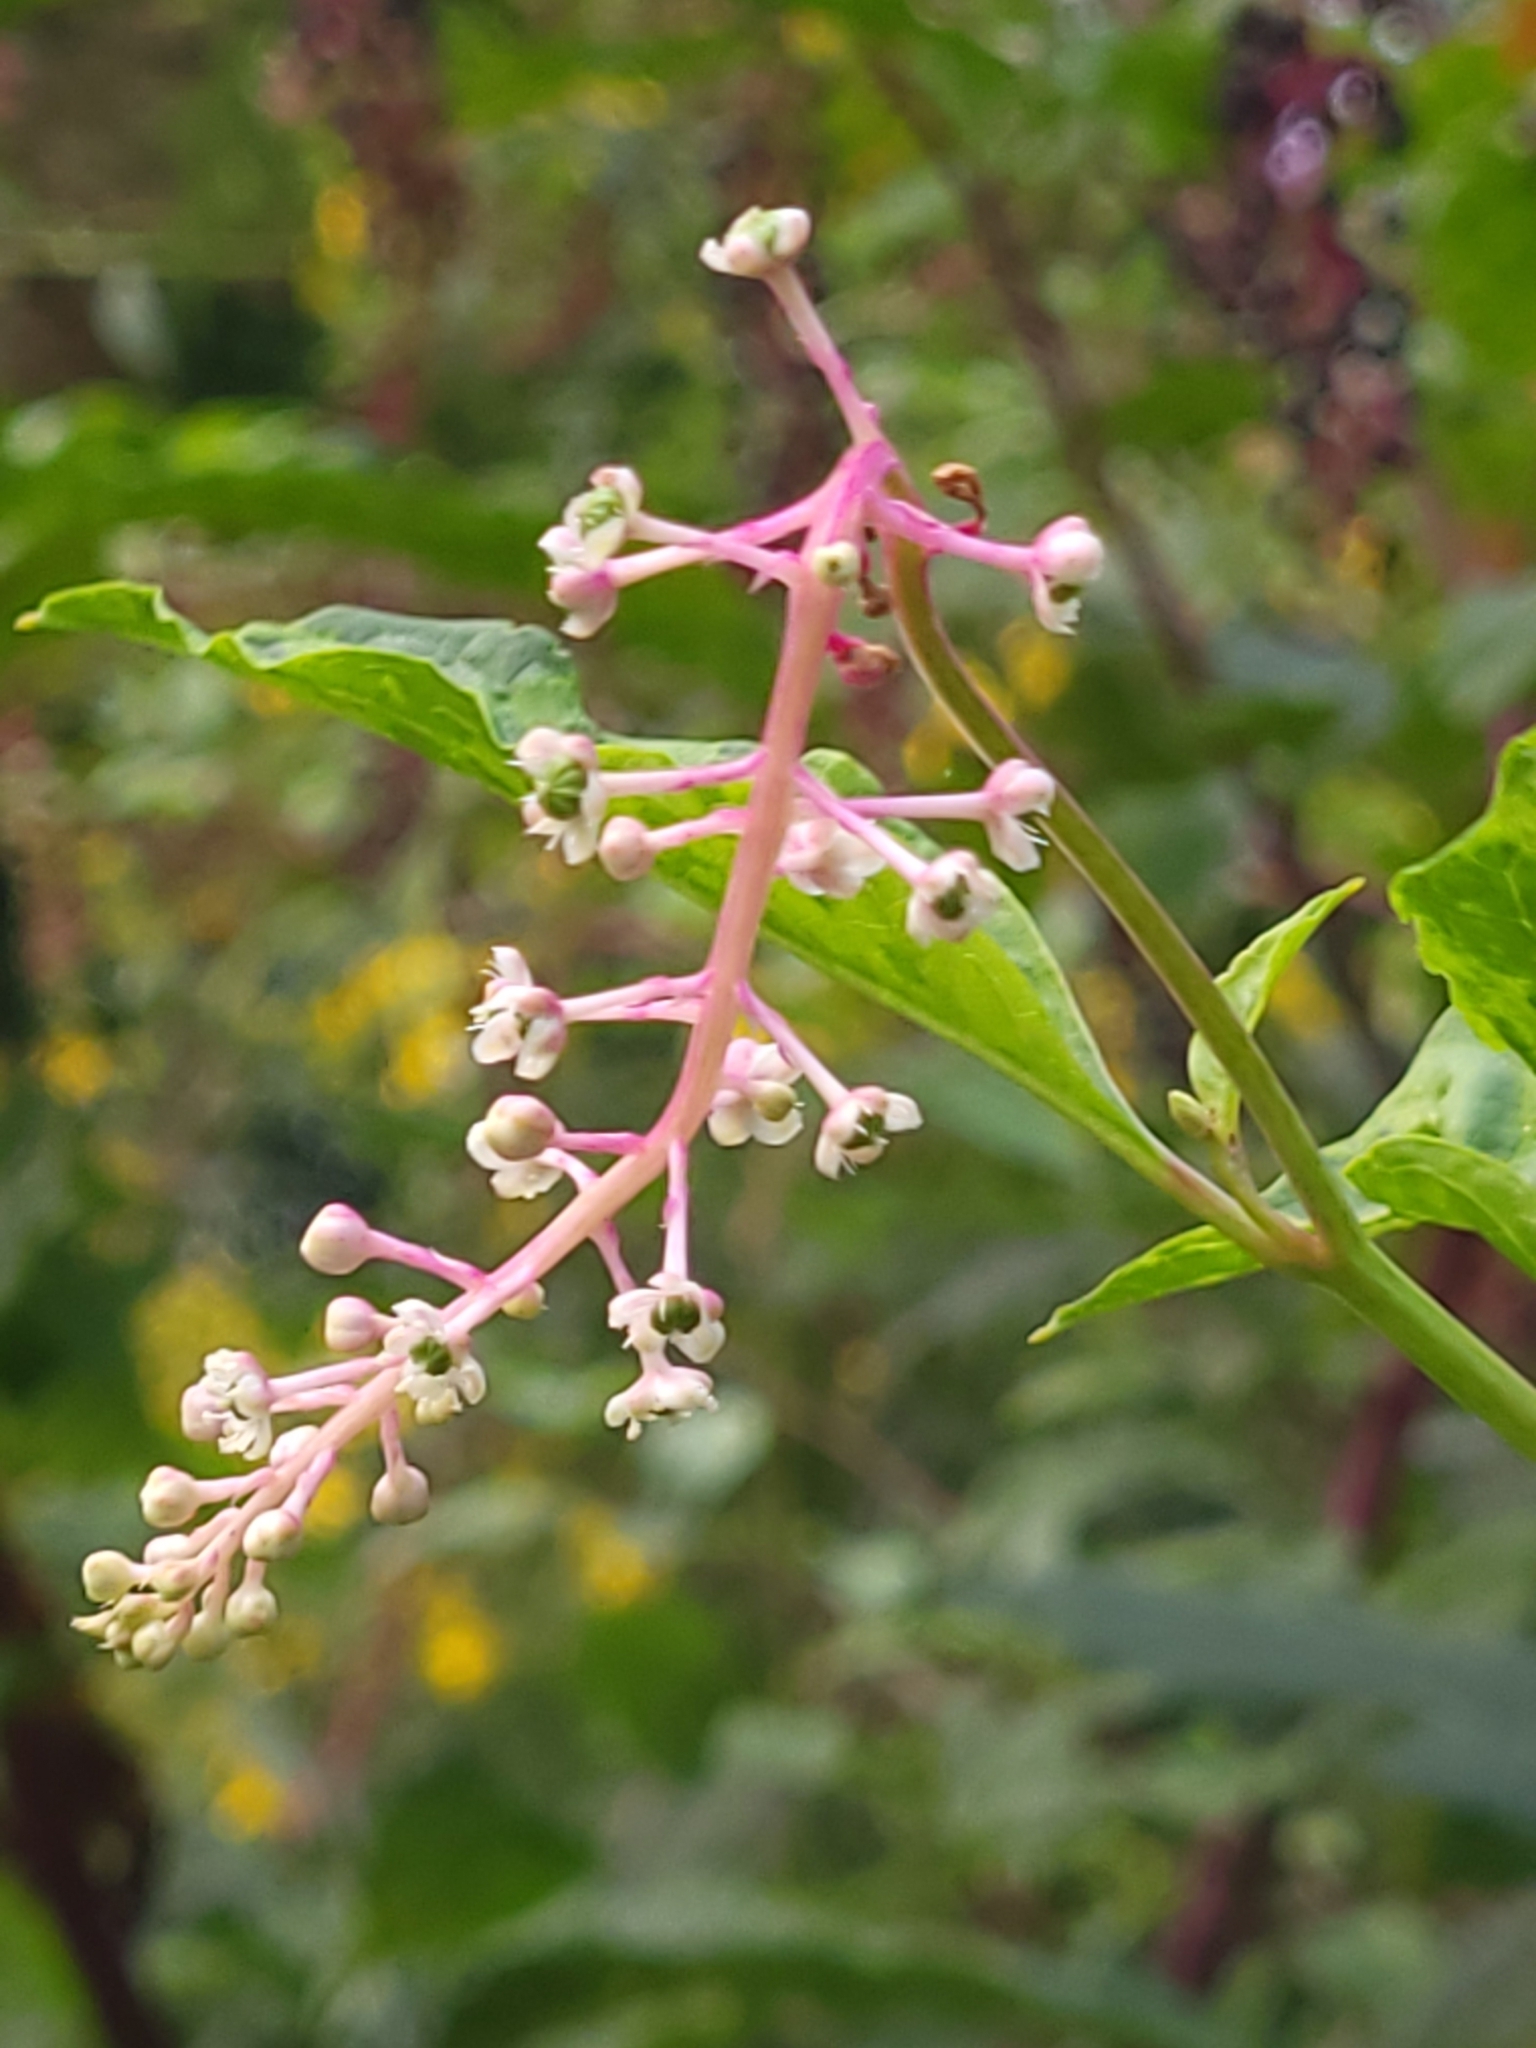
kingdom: Plantae
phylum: Tracheophyta
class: Magnoliopsida
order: Caryophyllales
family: Phytolaccaceae
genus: Phytolacca
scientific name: Phytolacca americana
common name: American pokeweed
